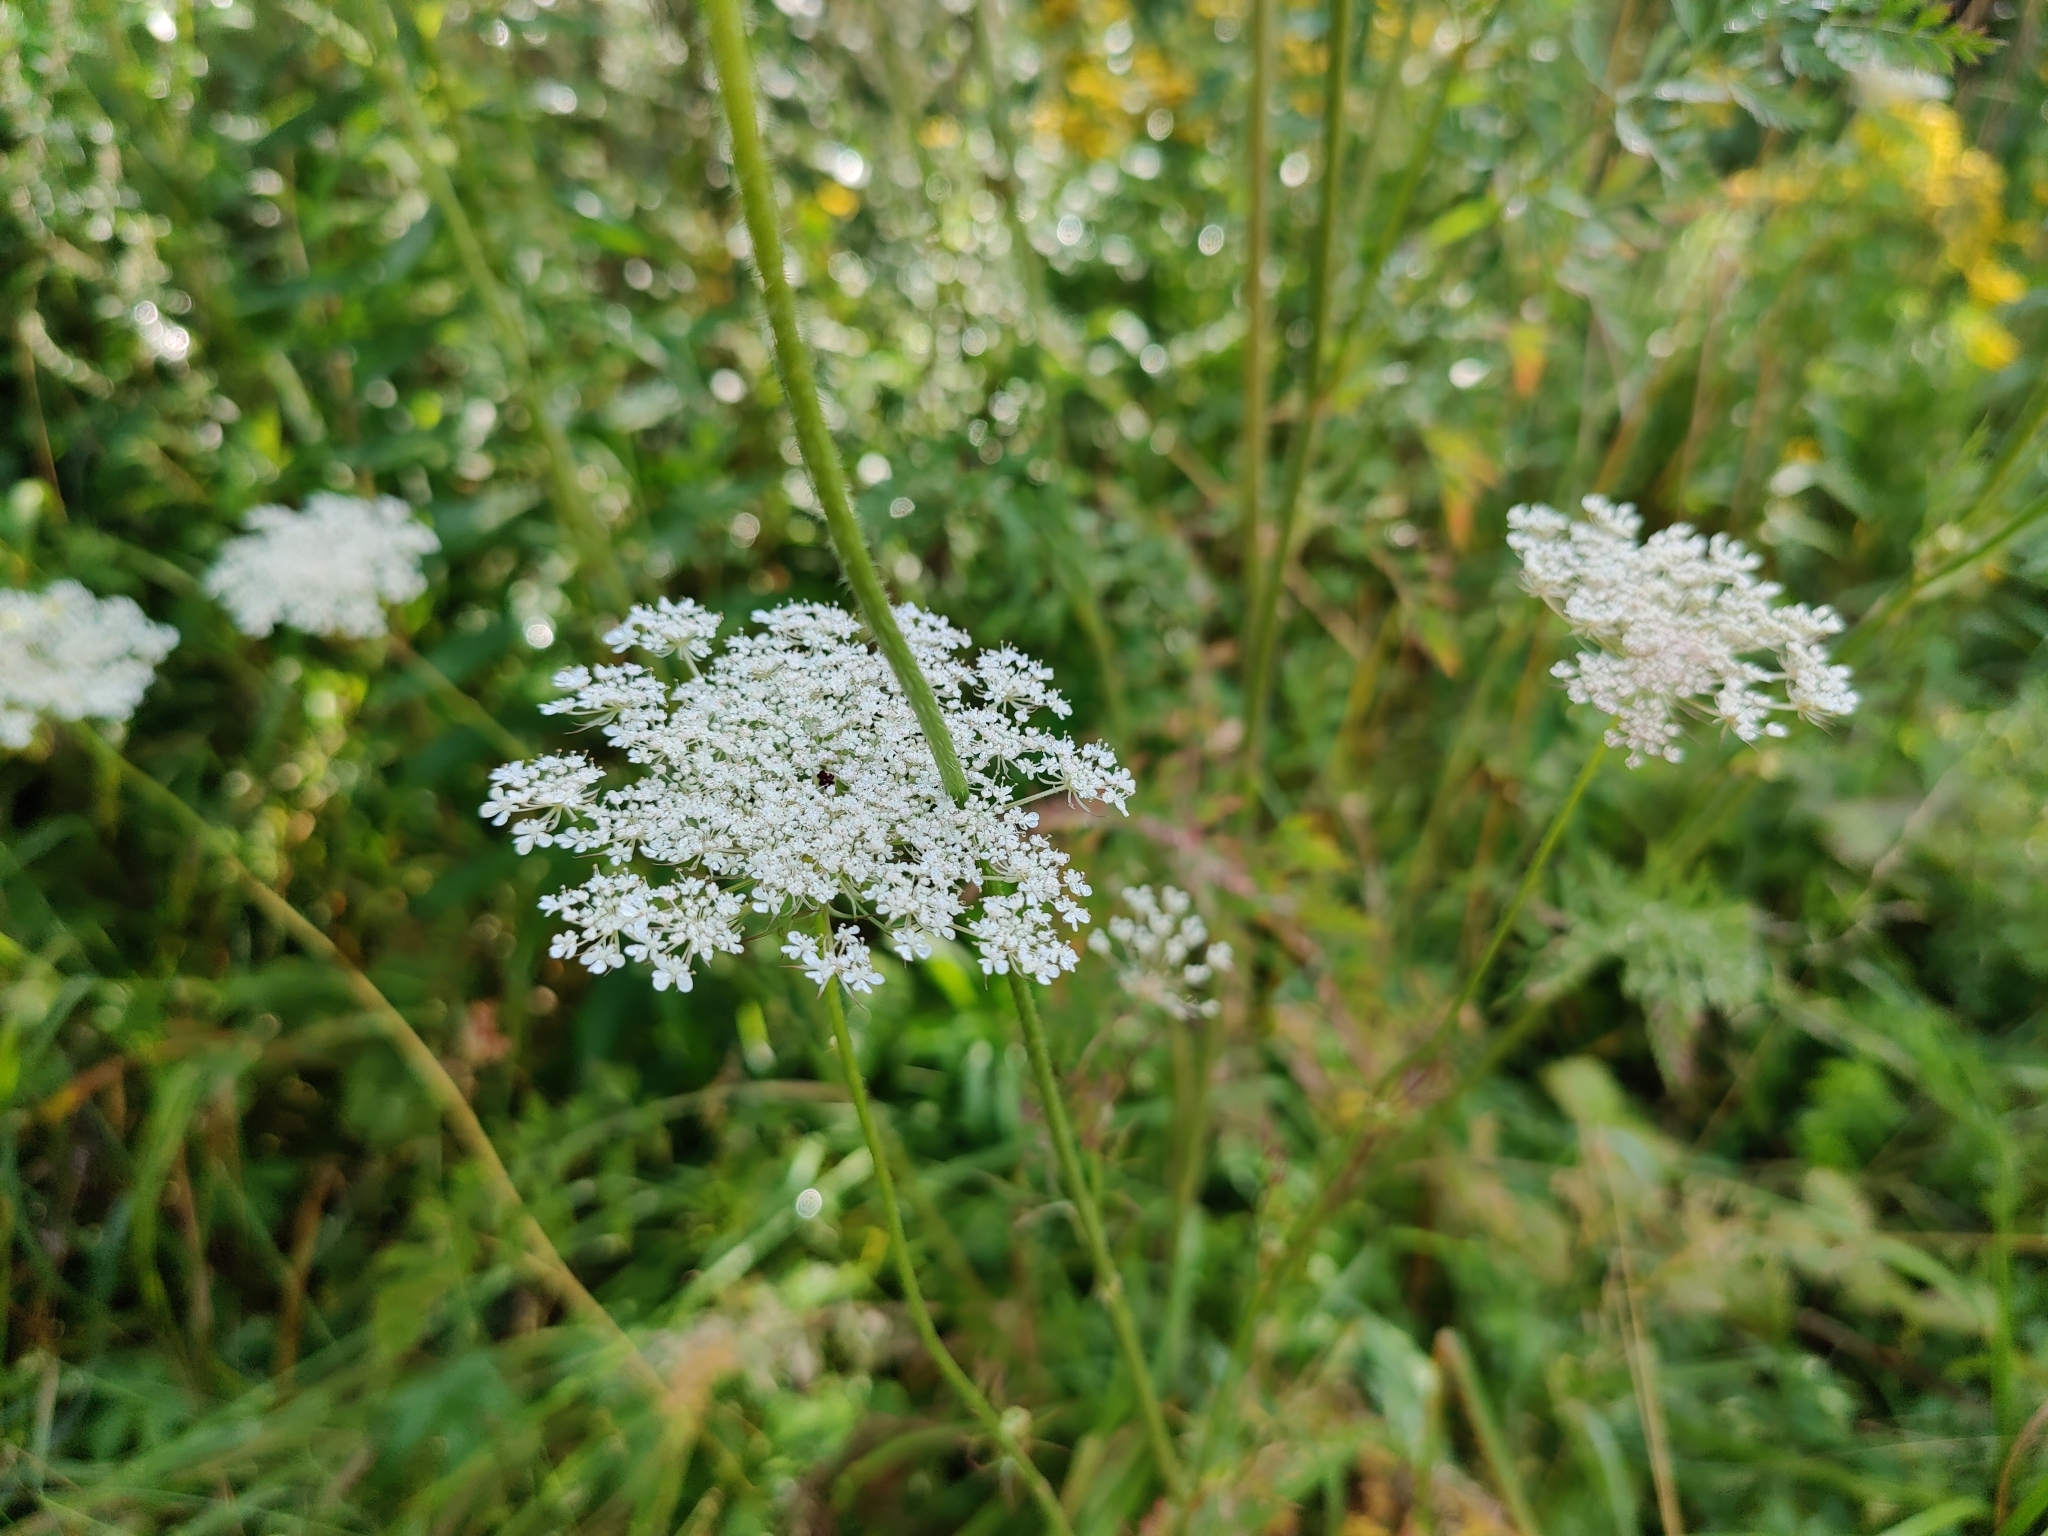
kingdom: Plantae
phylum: Tracheophyta
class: Magnoliopsida
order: Apiales
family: Apiaceae
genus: Daucus
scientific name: Daucus carota
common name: Wild carrot
